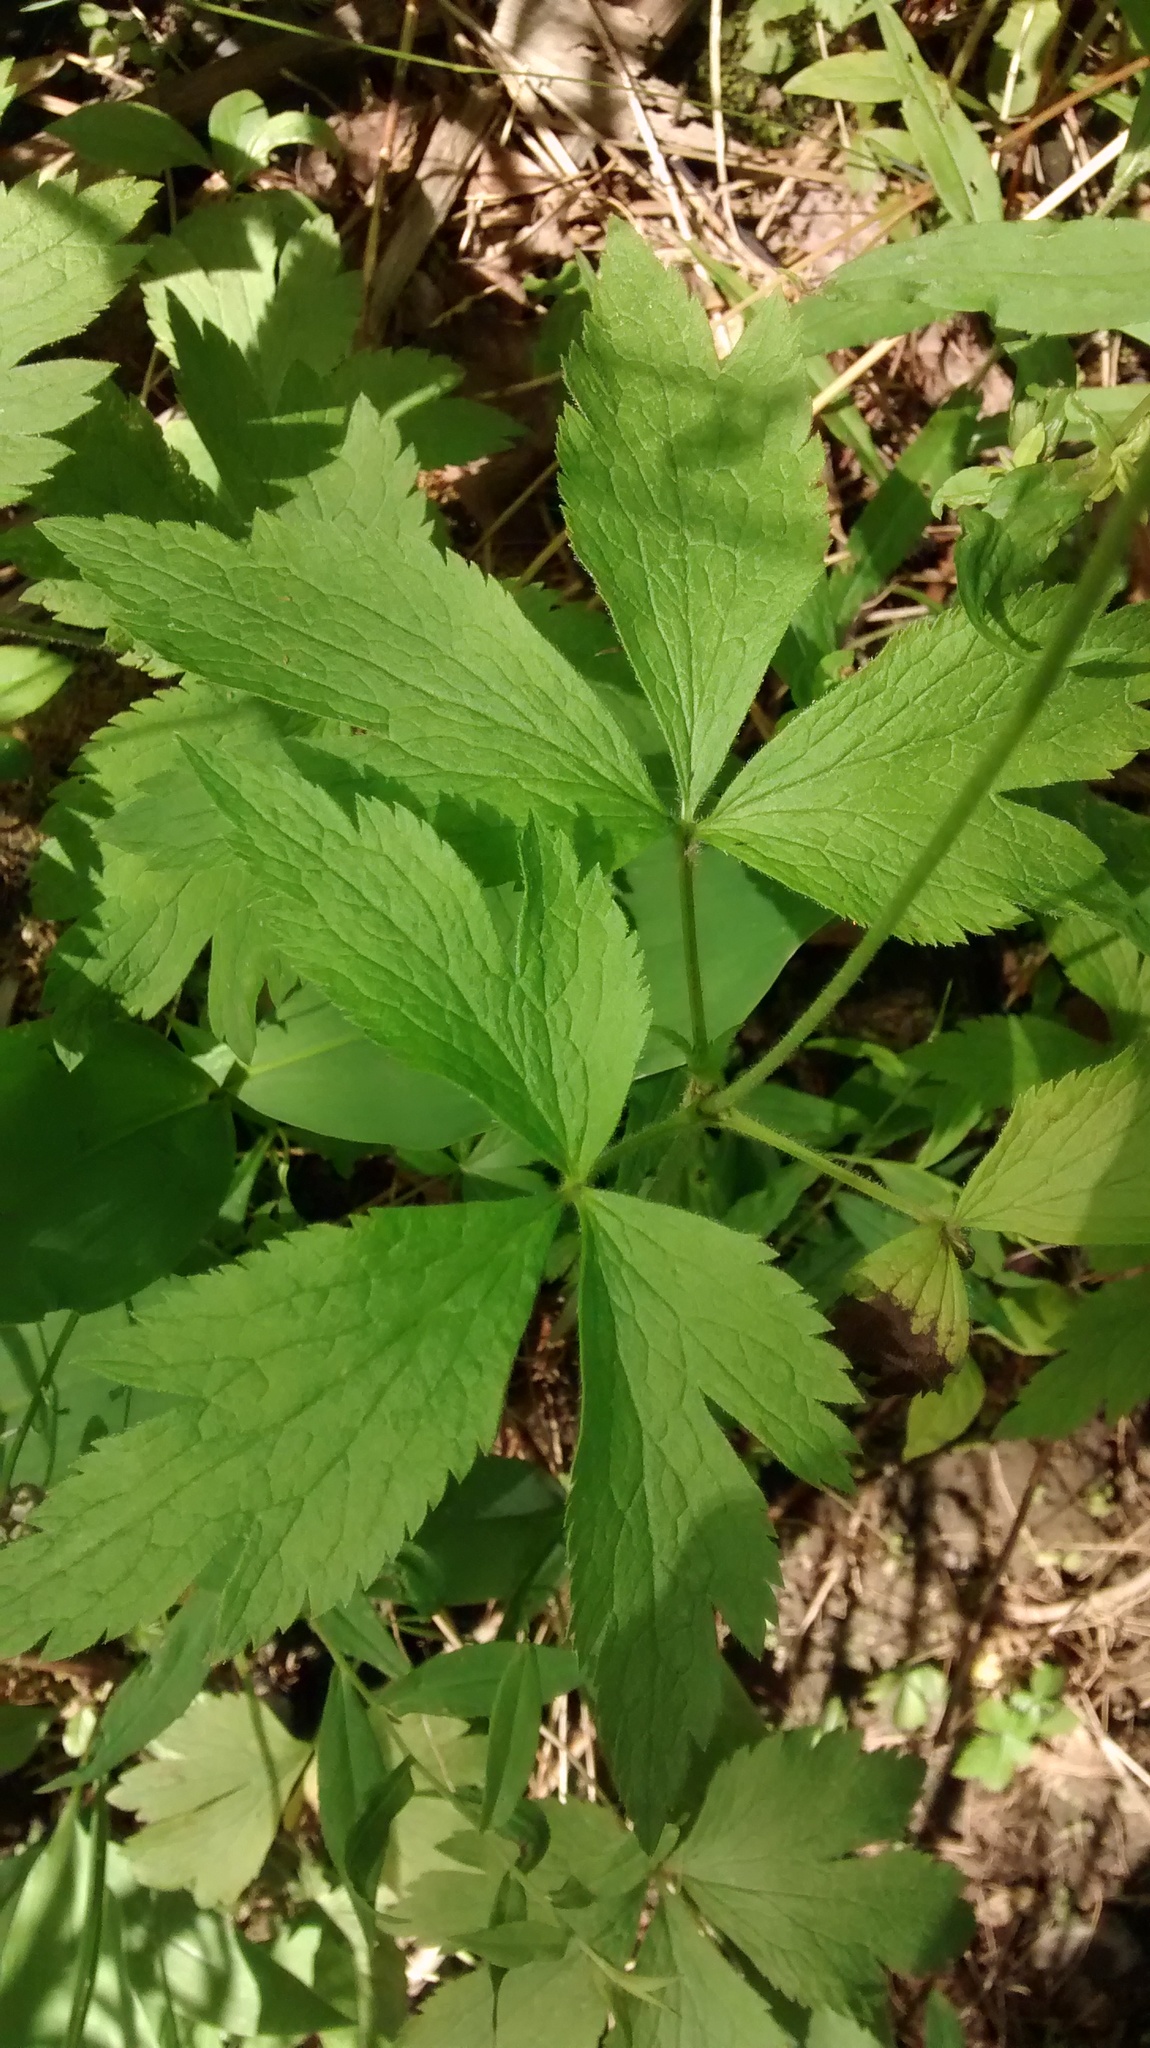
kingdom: Plantae
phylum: Tracheophyta
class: Magnoliopsida
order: Ranunculales
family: Ranunculaceae
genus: Anemone
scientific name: Anemone virginiana
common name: Tall anemone
